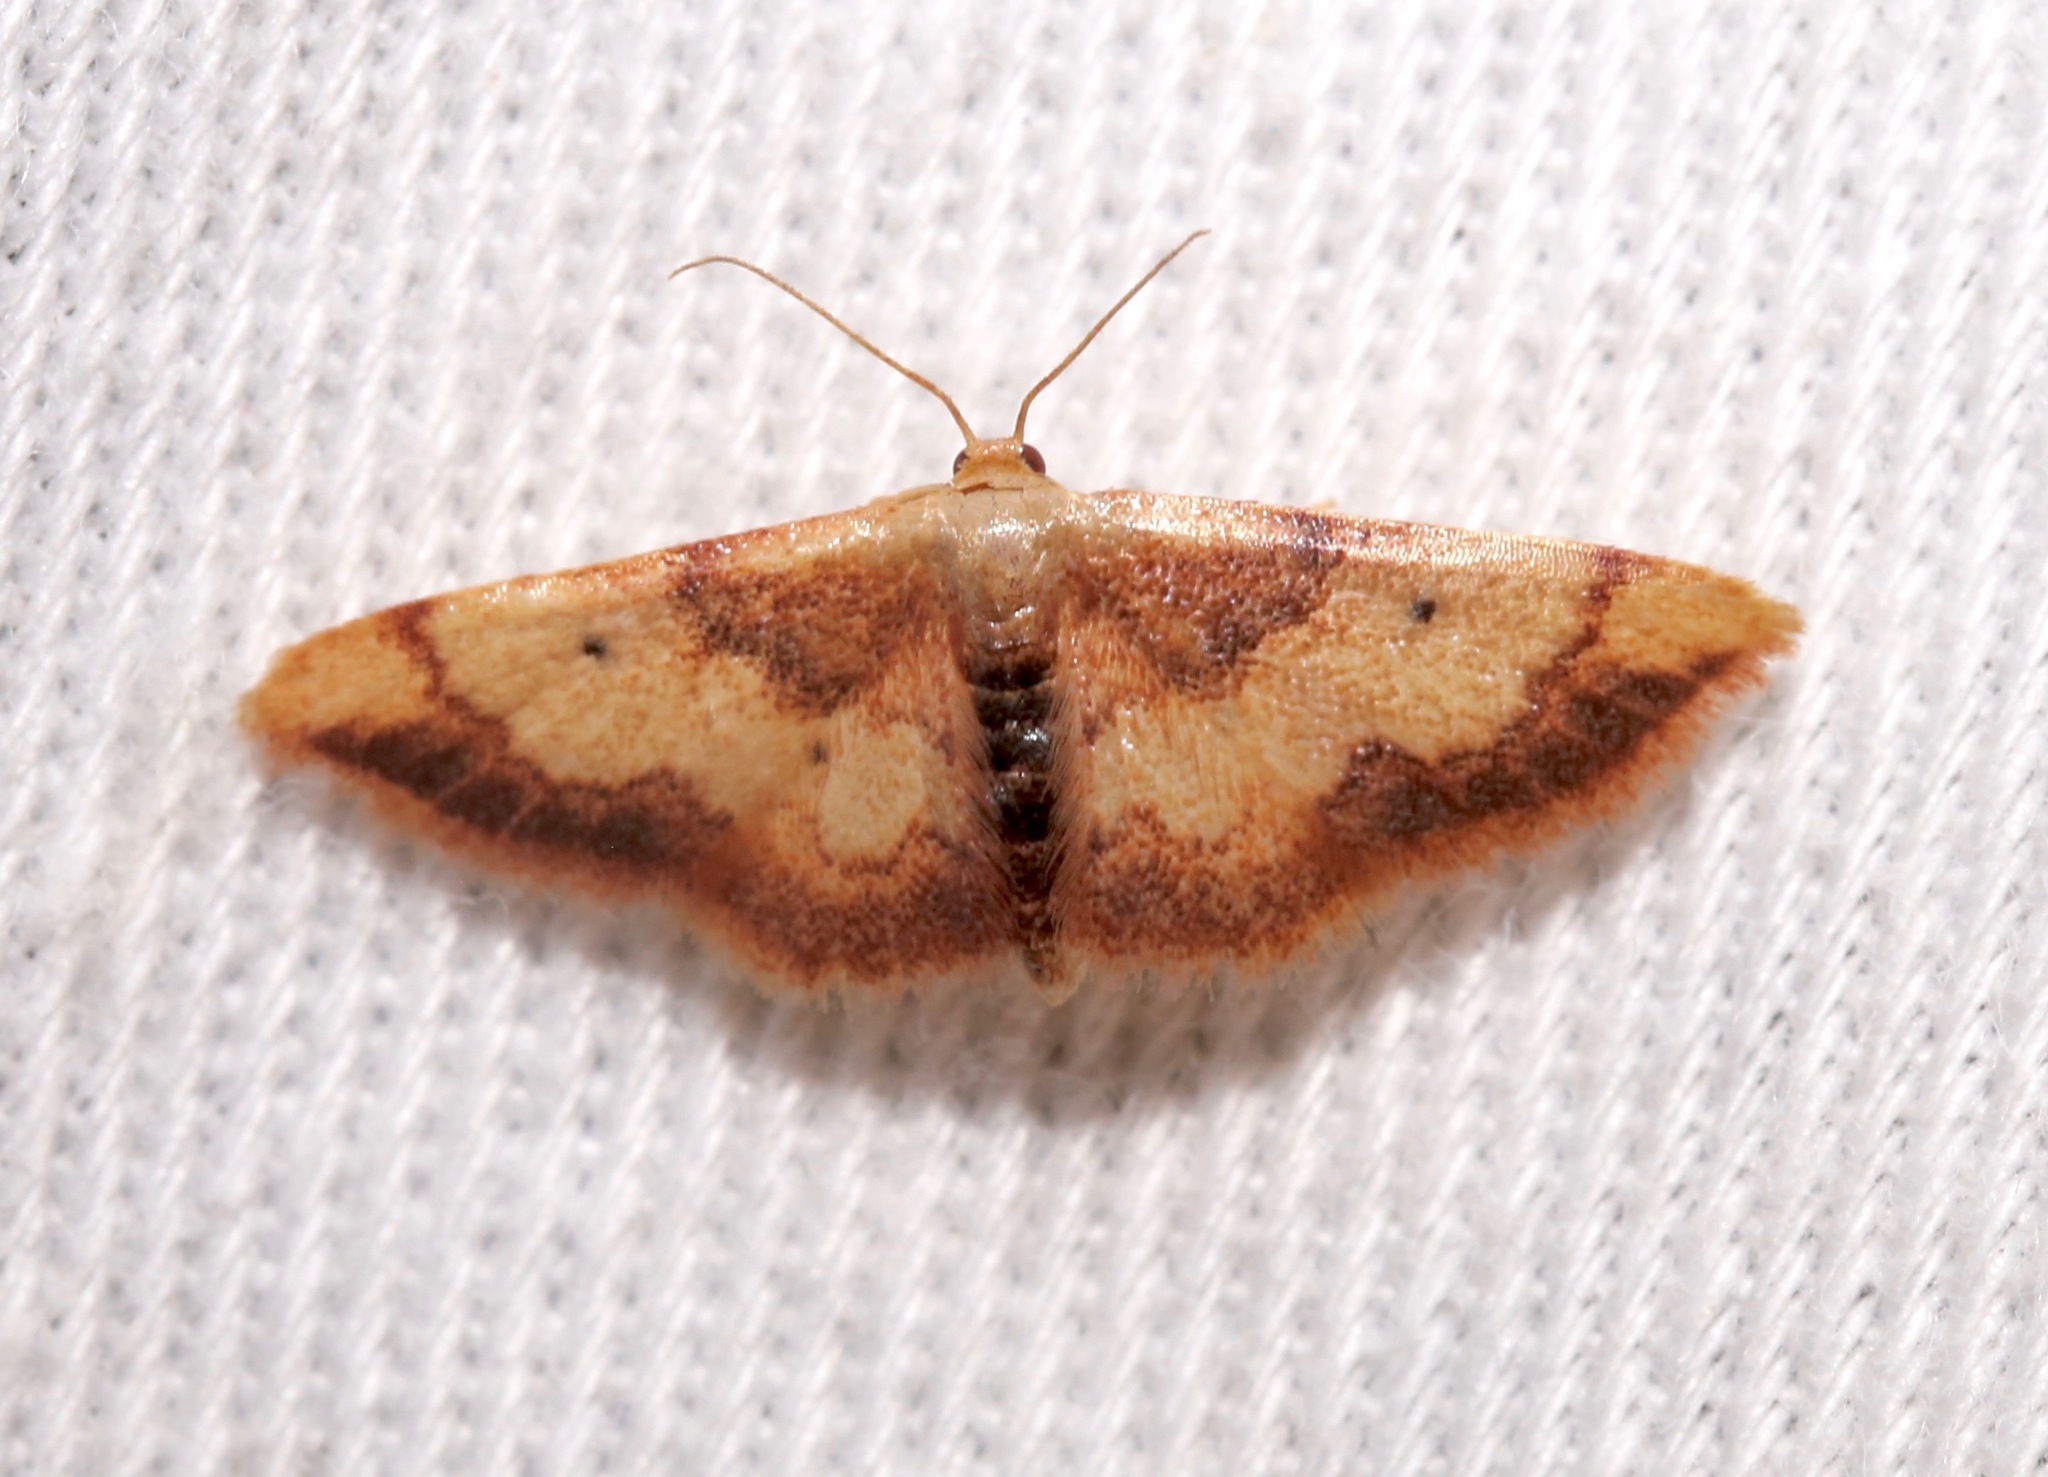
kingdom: Animalia
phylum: Arthropoda
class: Insecta
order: Lepidoptera
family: Geometridae
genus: Idaea
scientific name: Idaea demissaria
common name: Red-bordered wave
